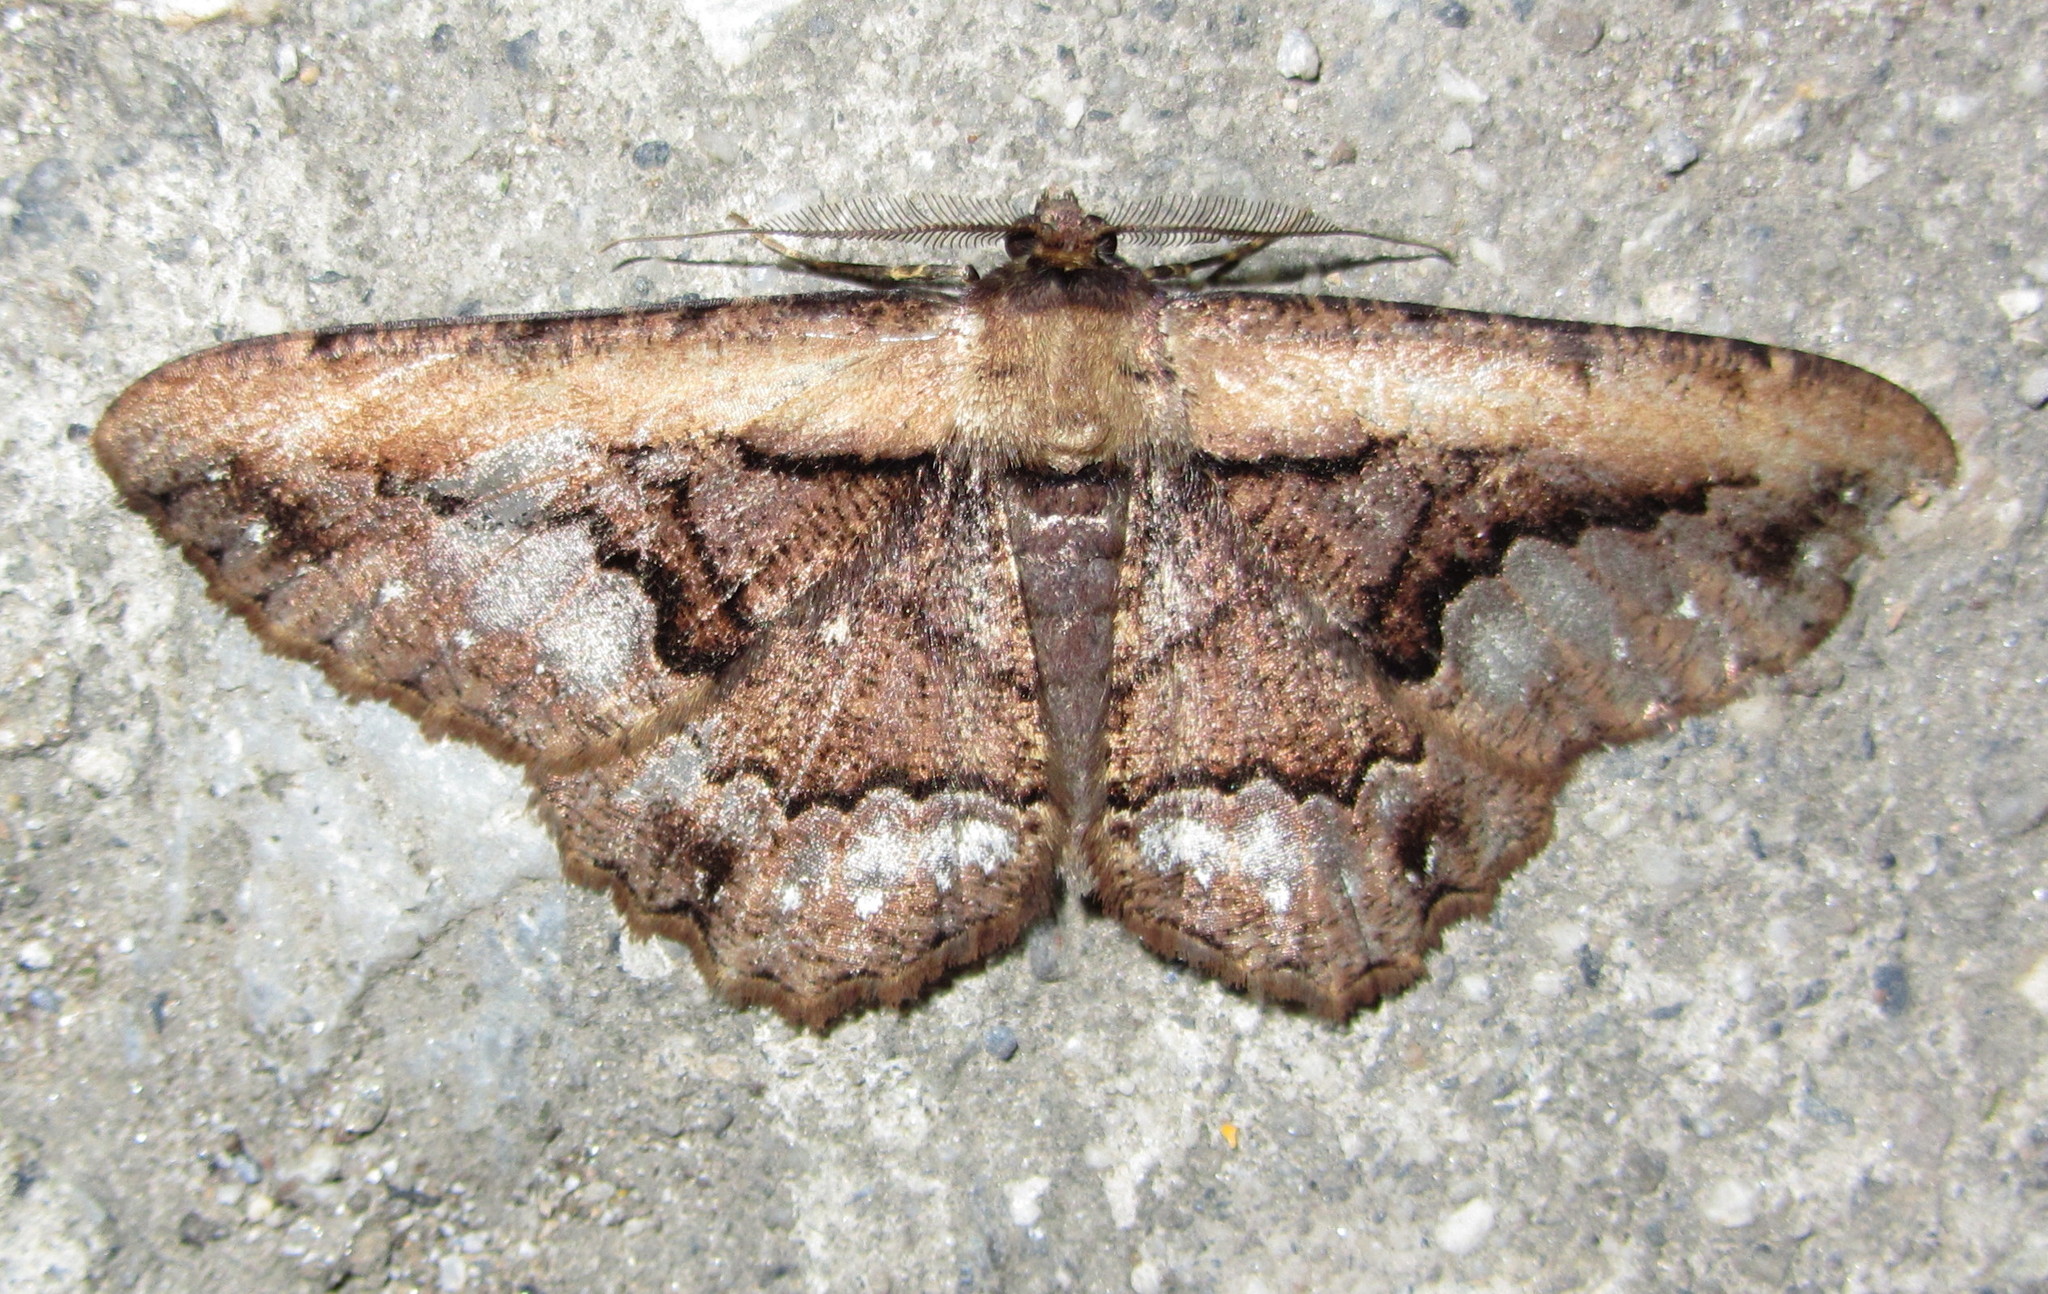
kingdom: Animalia
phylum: Arthropoda
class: Insecta
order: Lepidoptera
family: Geometridae
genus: Darisa
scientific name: Darisa fratercula
